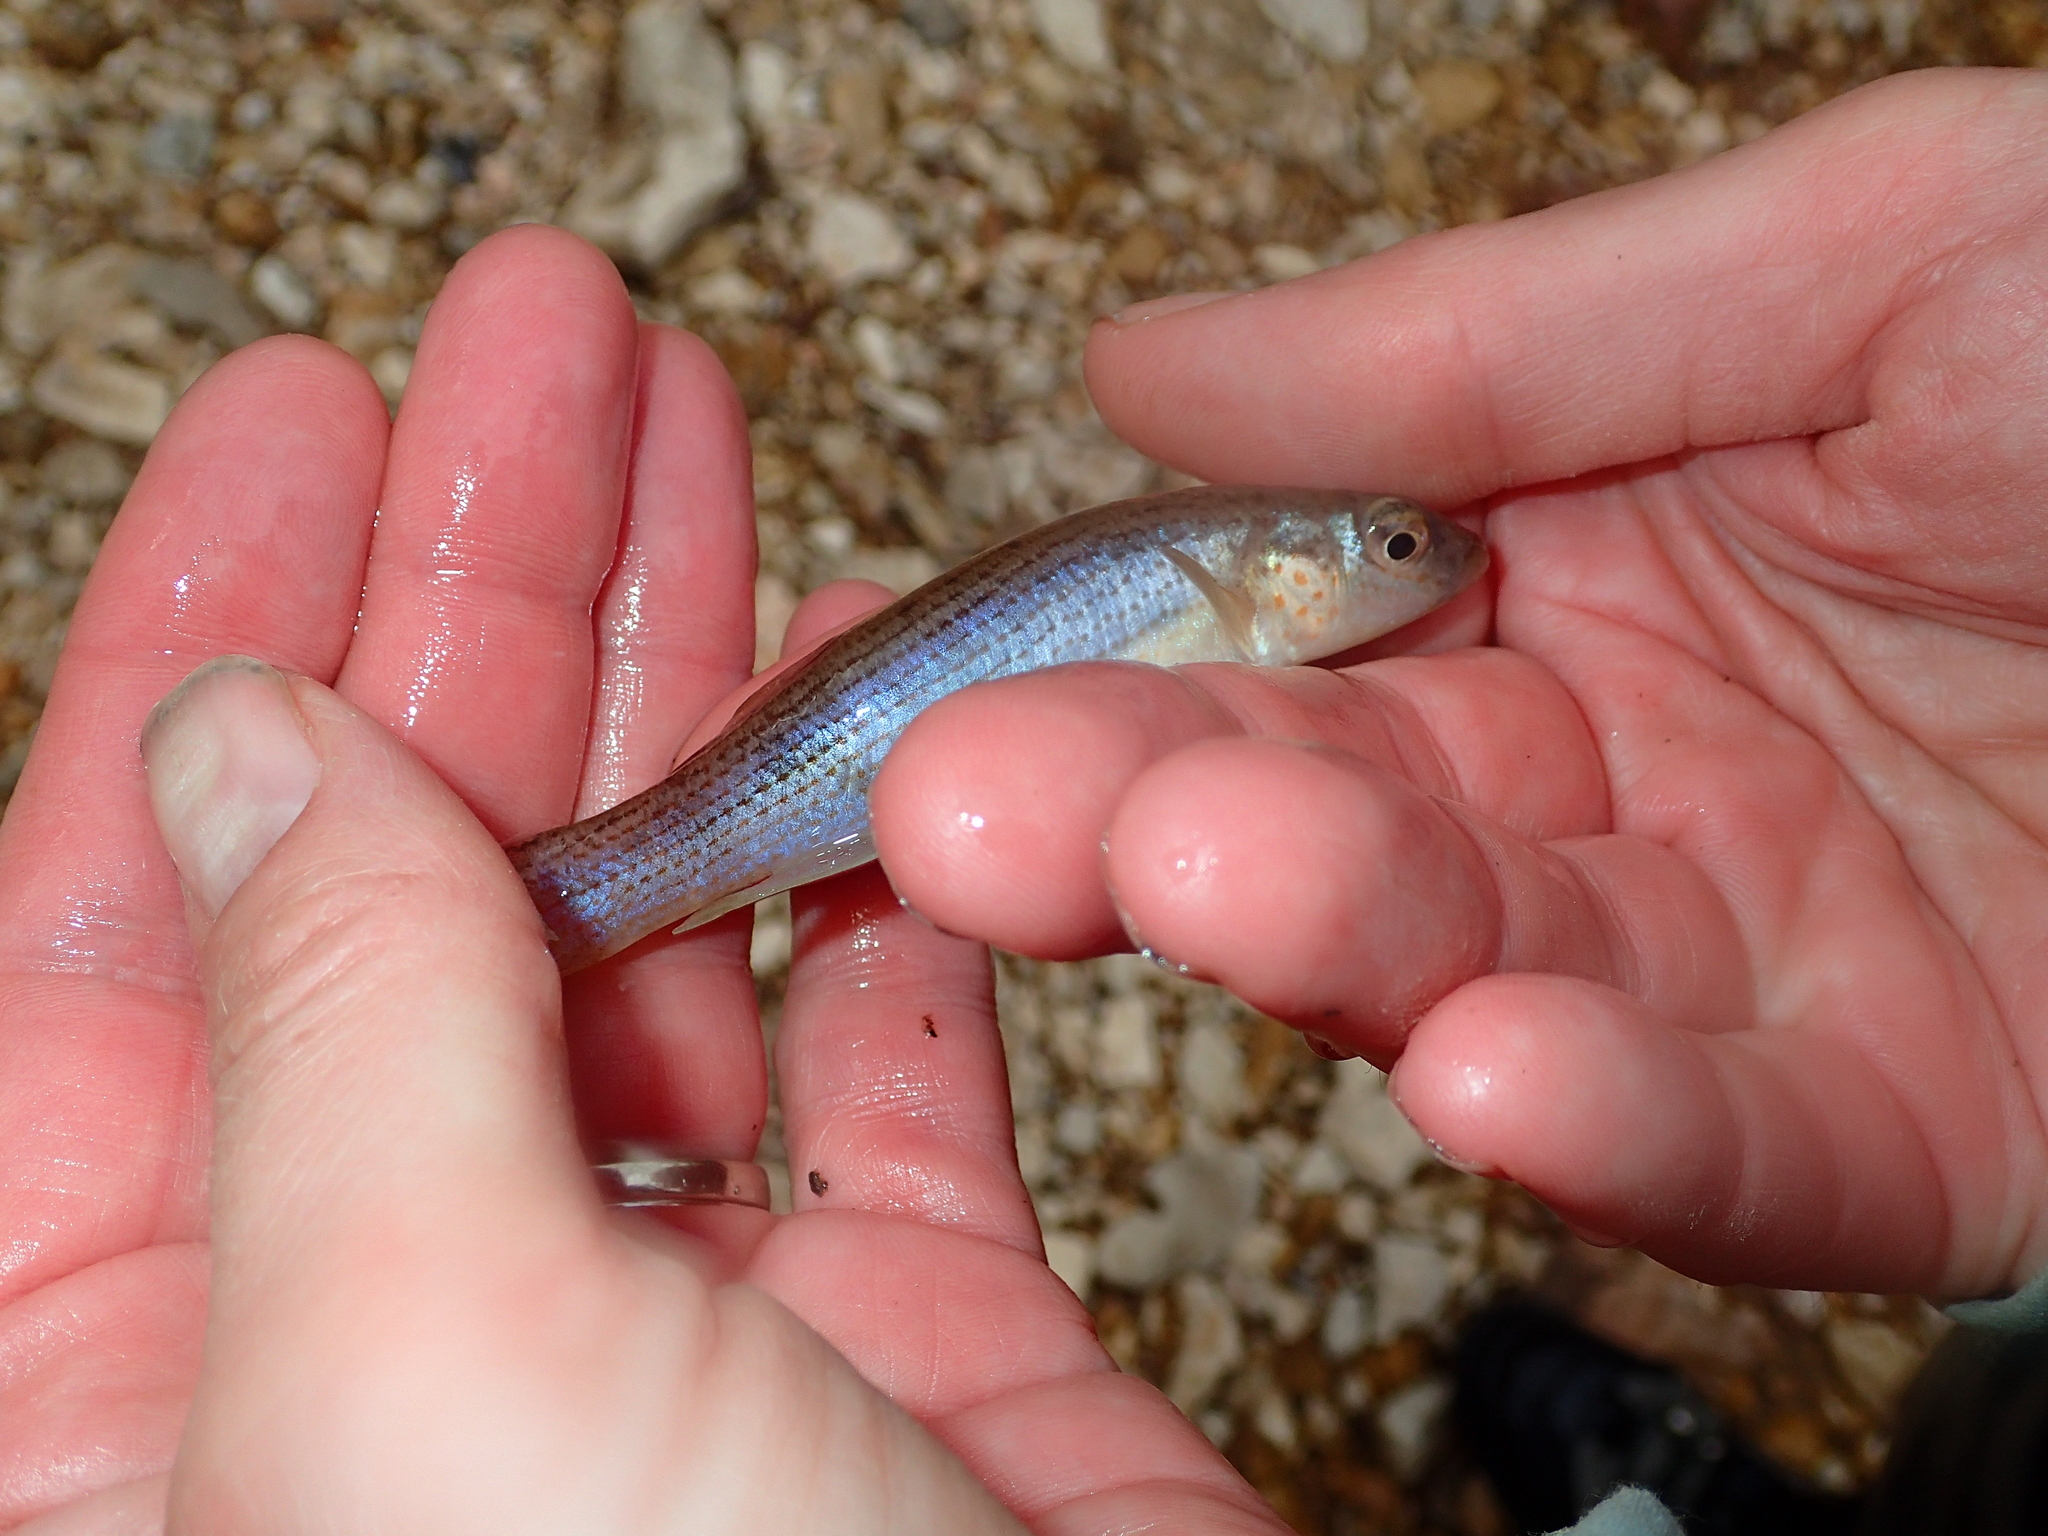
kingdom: Animalia
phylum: Chordata
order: Cyprinodontiformes
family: Fundulidae
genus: Fundulus
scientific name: Fundulus catenatus
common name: Northern studfish
